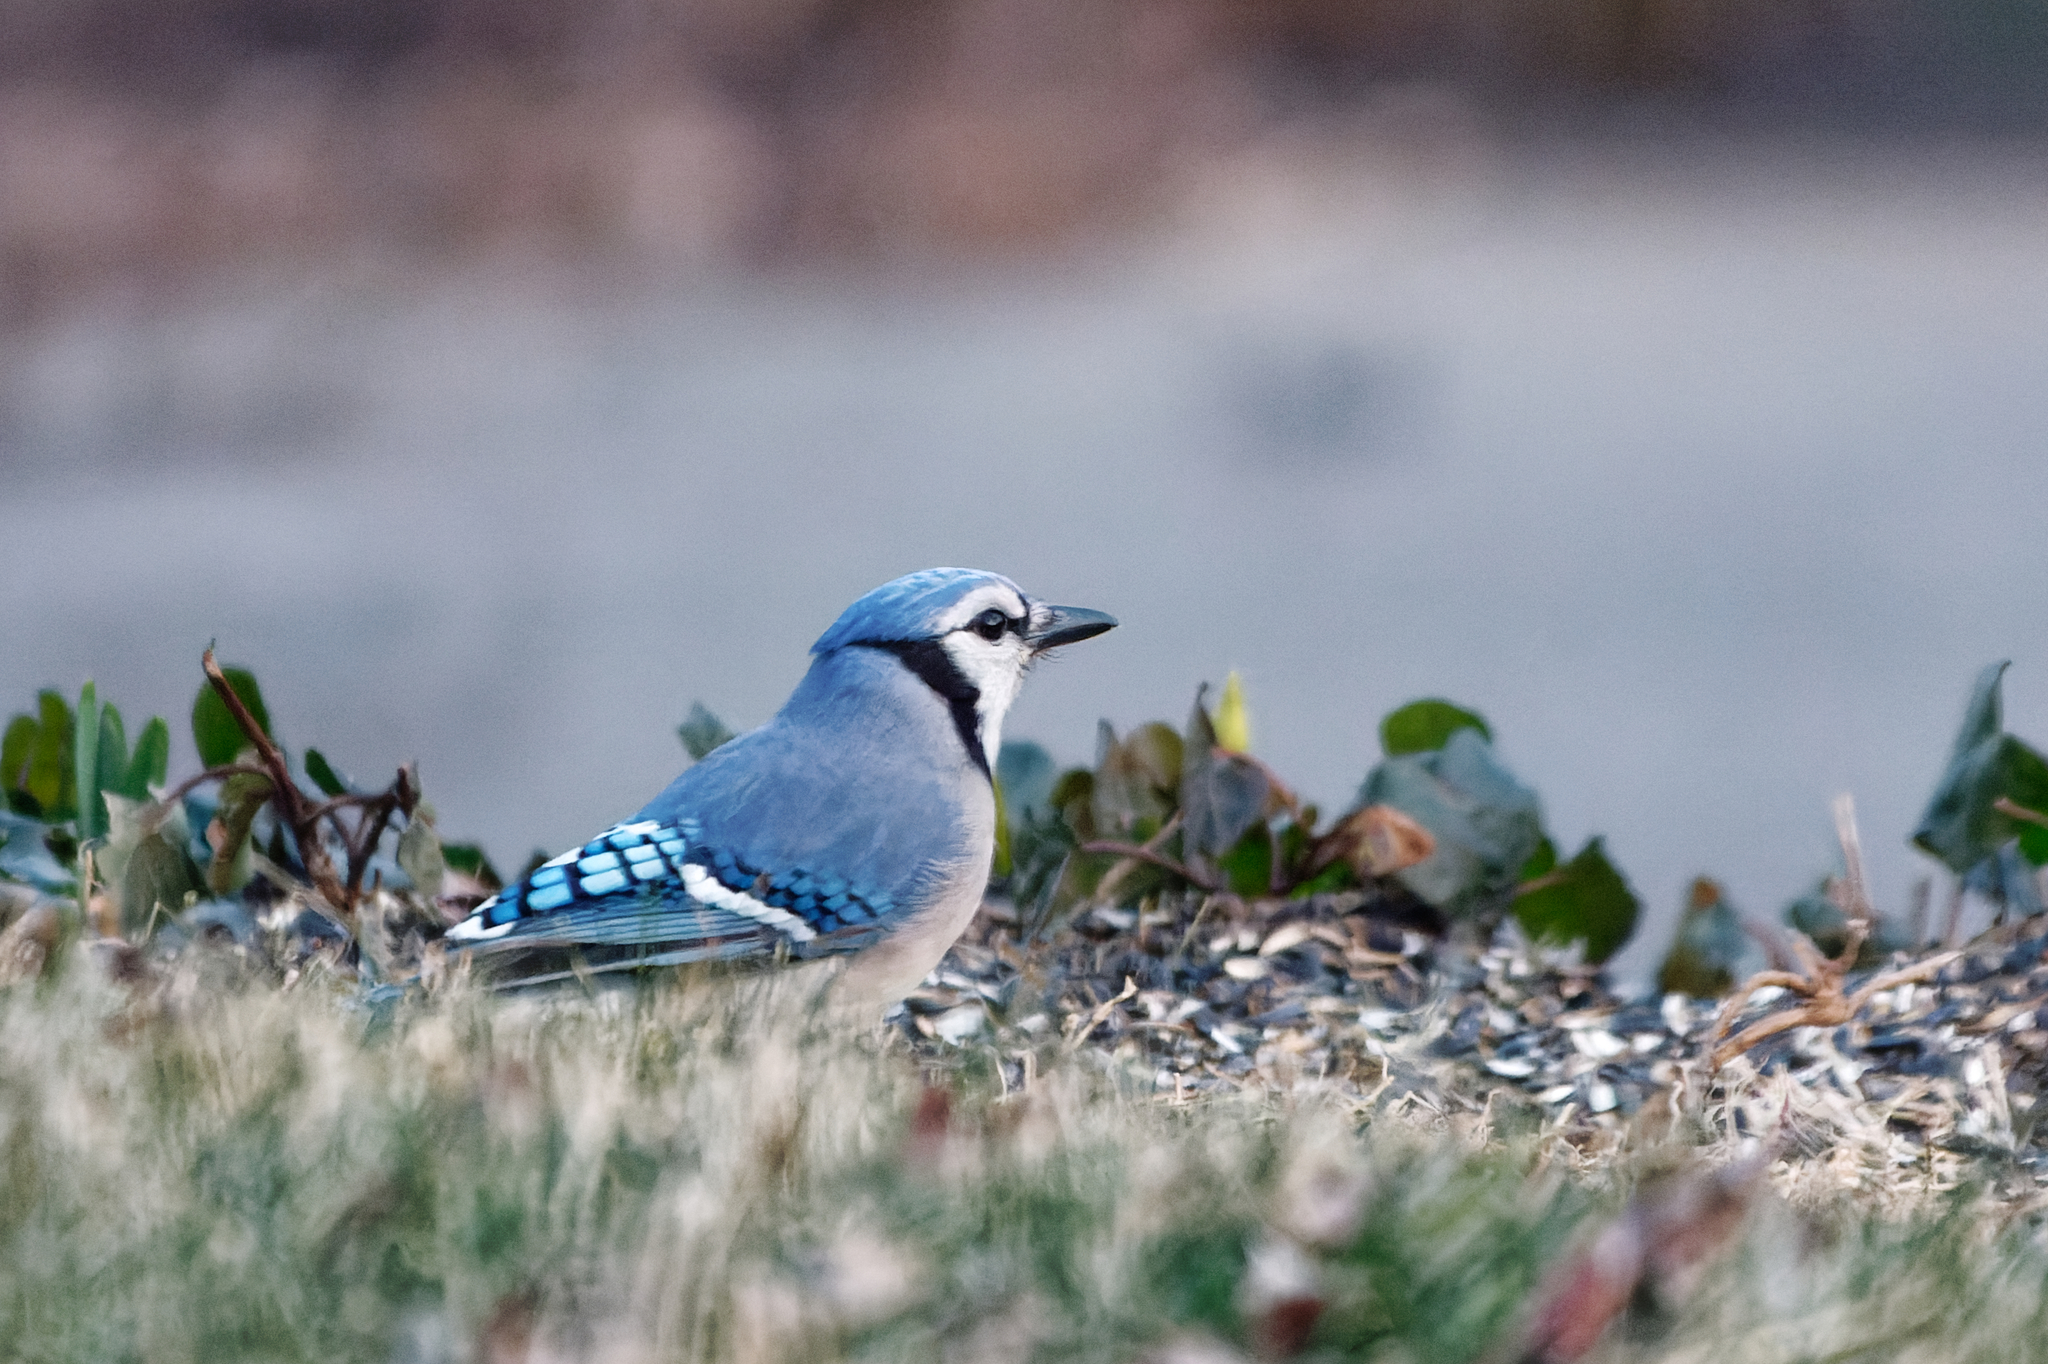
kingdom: Animalia
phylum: Chordata
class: Aves
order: Passeriformes
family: Corvidae
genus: Cyanocitta
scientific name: Cyanocitta cristata
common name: Blue jay
